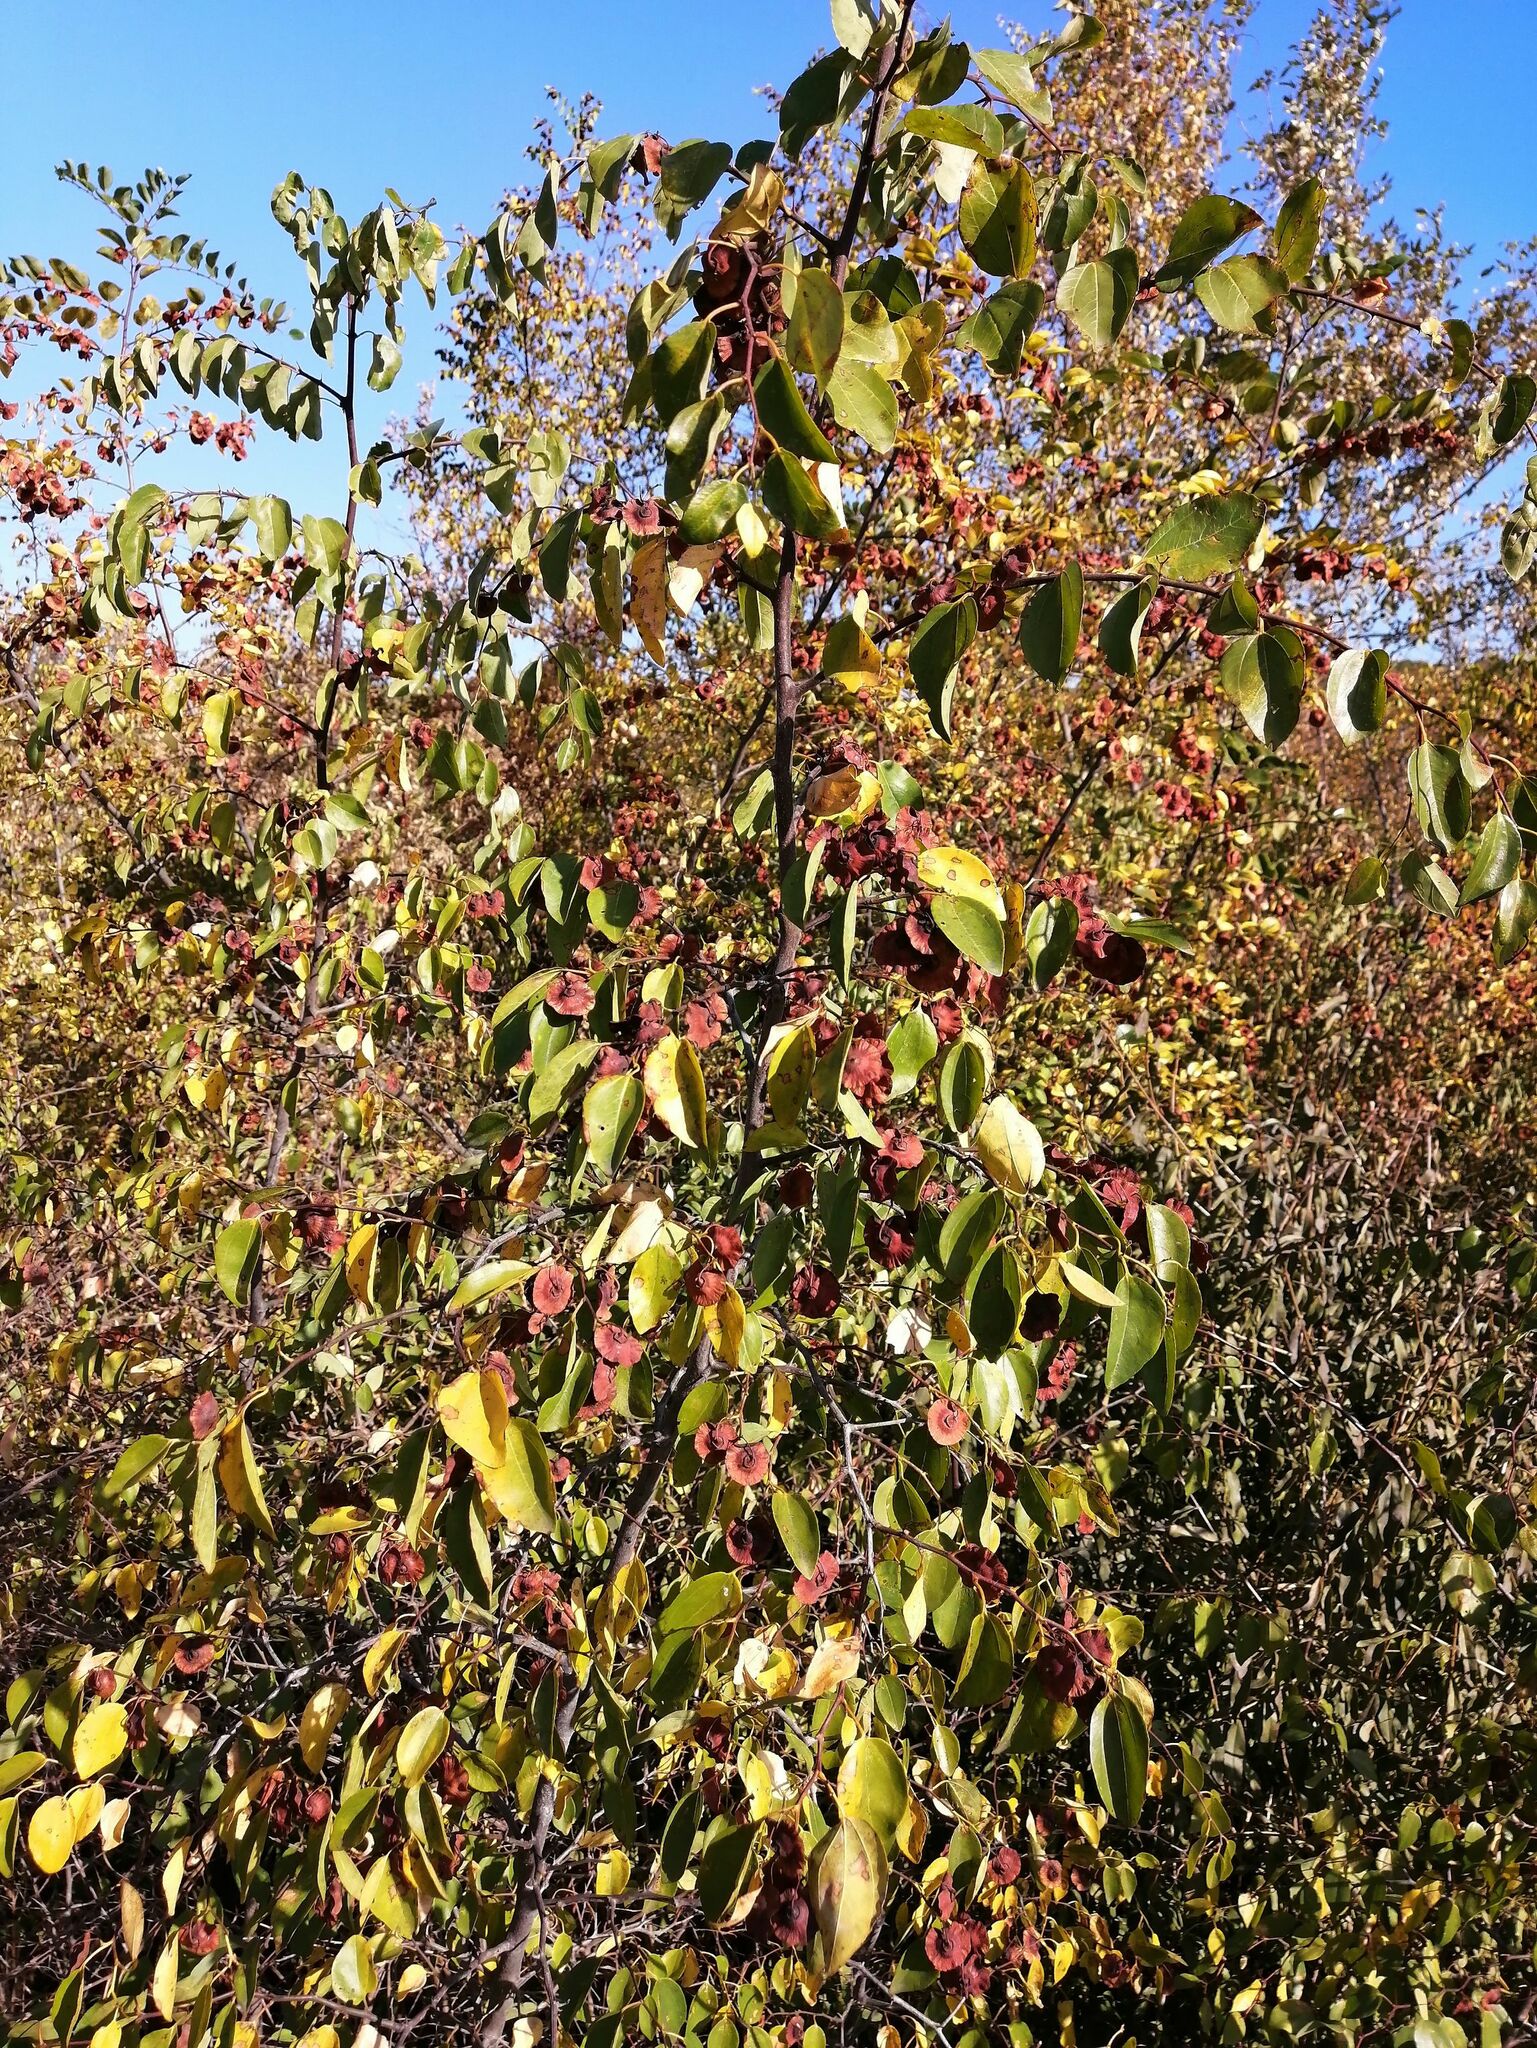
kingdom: Plantae
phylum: Tracheophyta
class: Magnoliopsida
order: Rosales
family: Rhamnaceae
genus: Paliurus
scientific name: Paliurus spina-christi
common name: Jeruselem thorn
